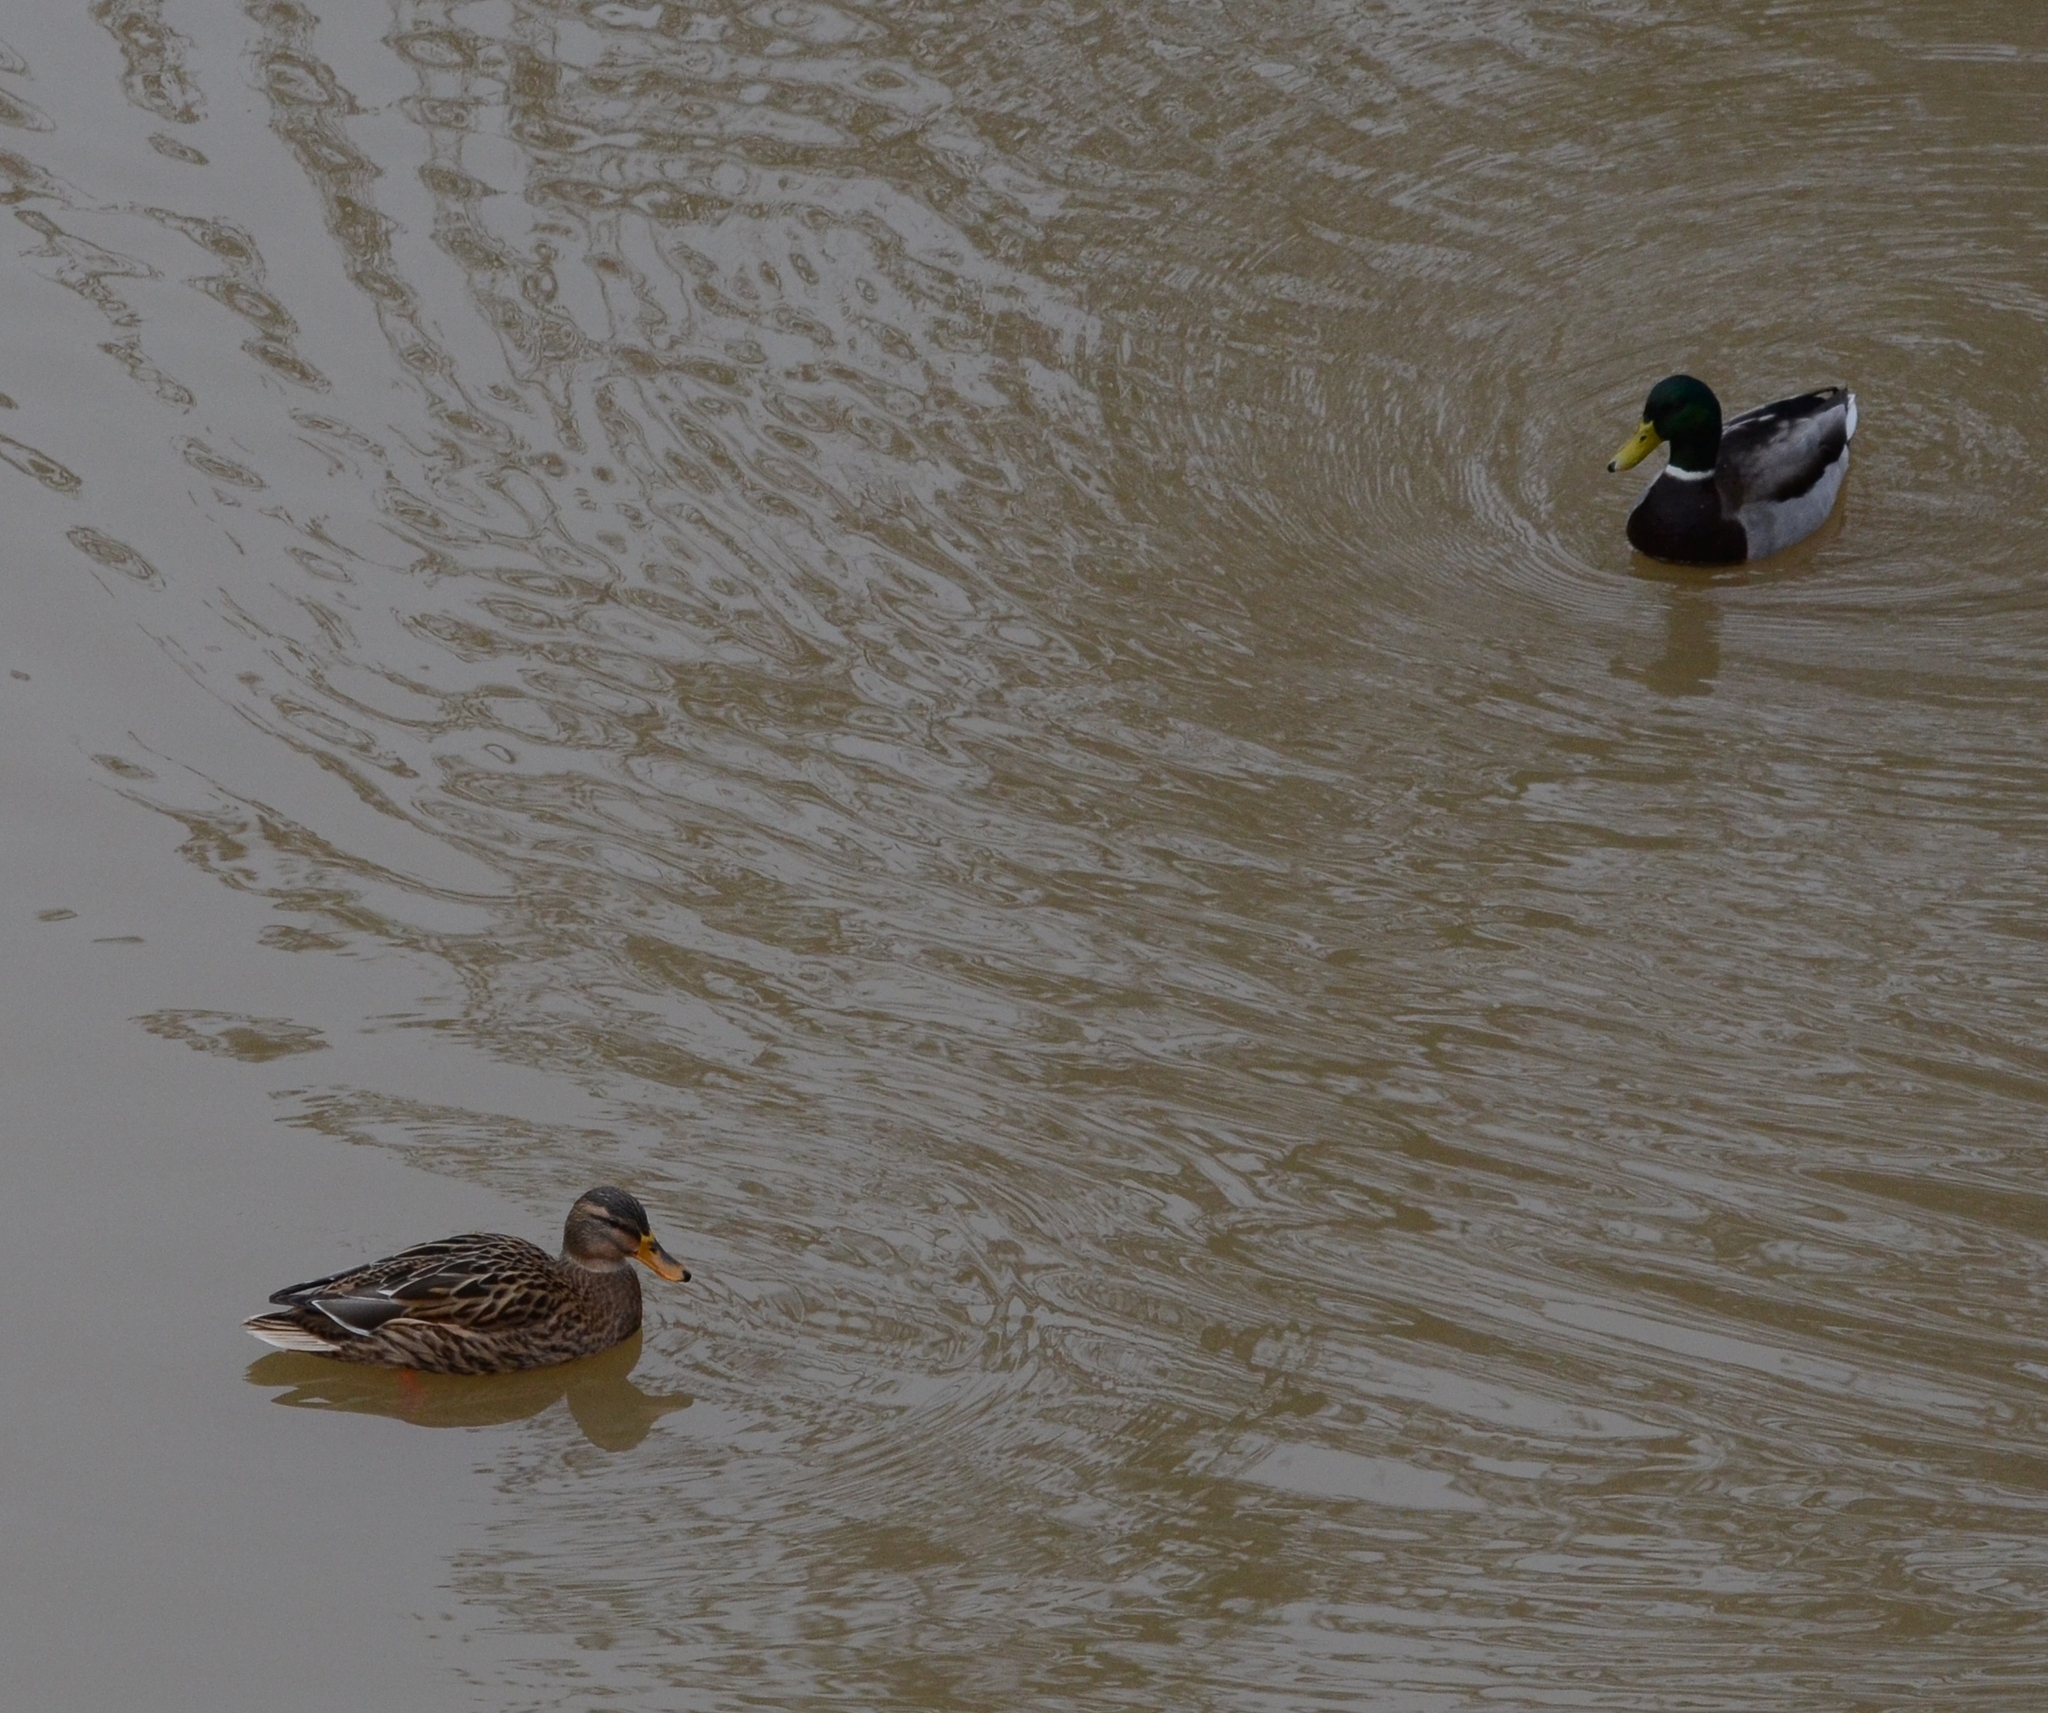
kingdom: Animalia
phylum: Chordata
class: Aves
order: Anseriformes
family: Anatidae
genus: Anas
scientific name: Anas platyrhynchos
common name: Mallard
